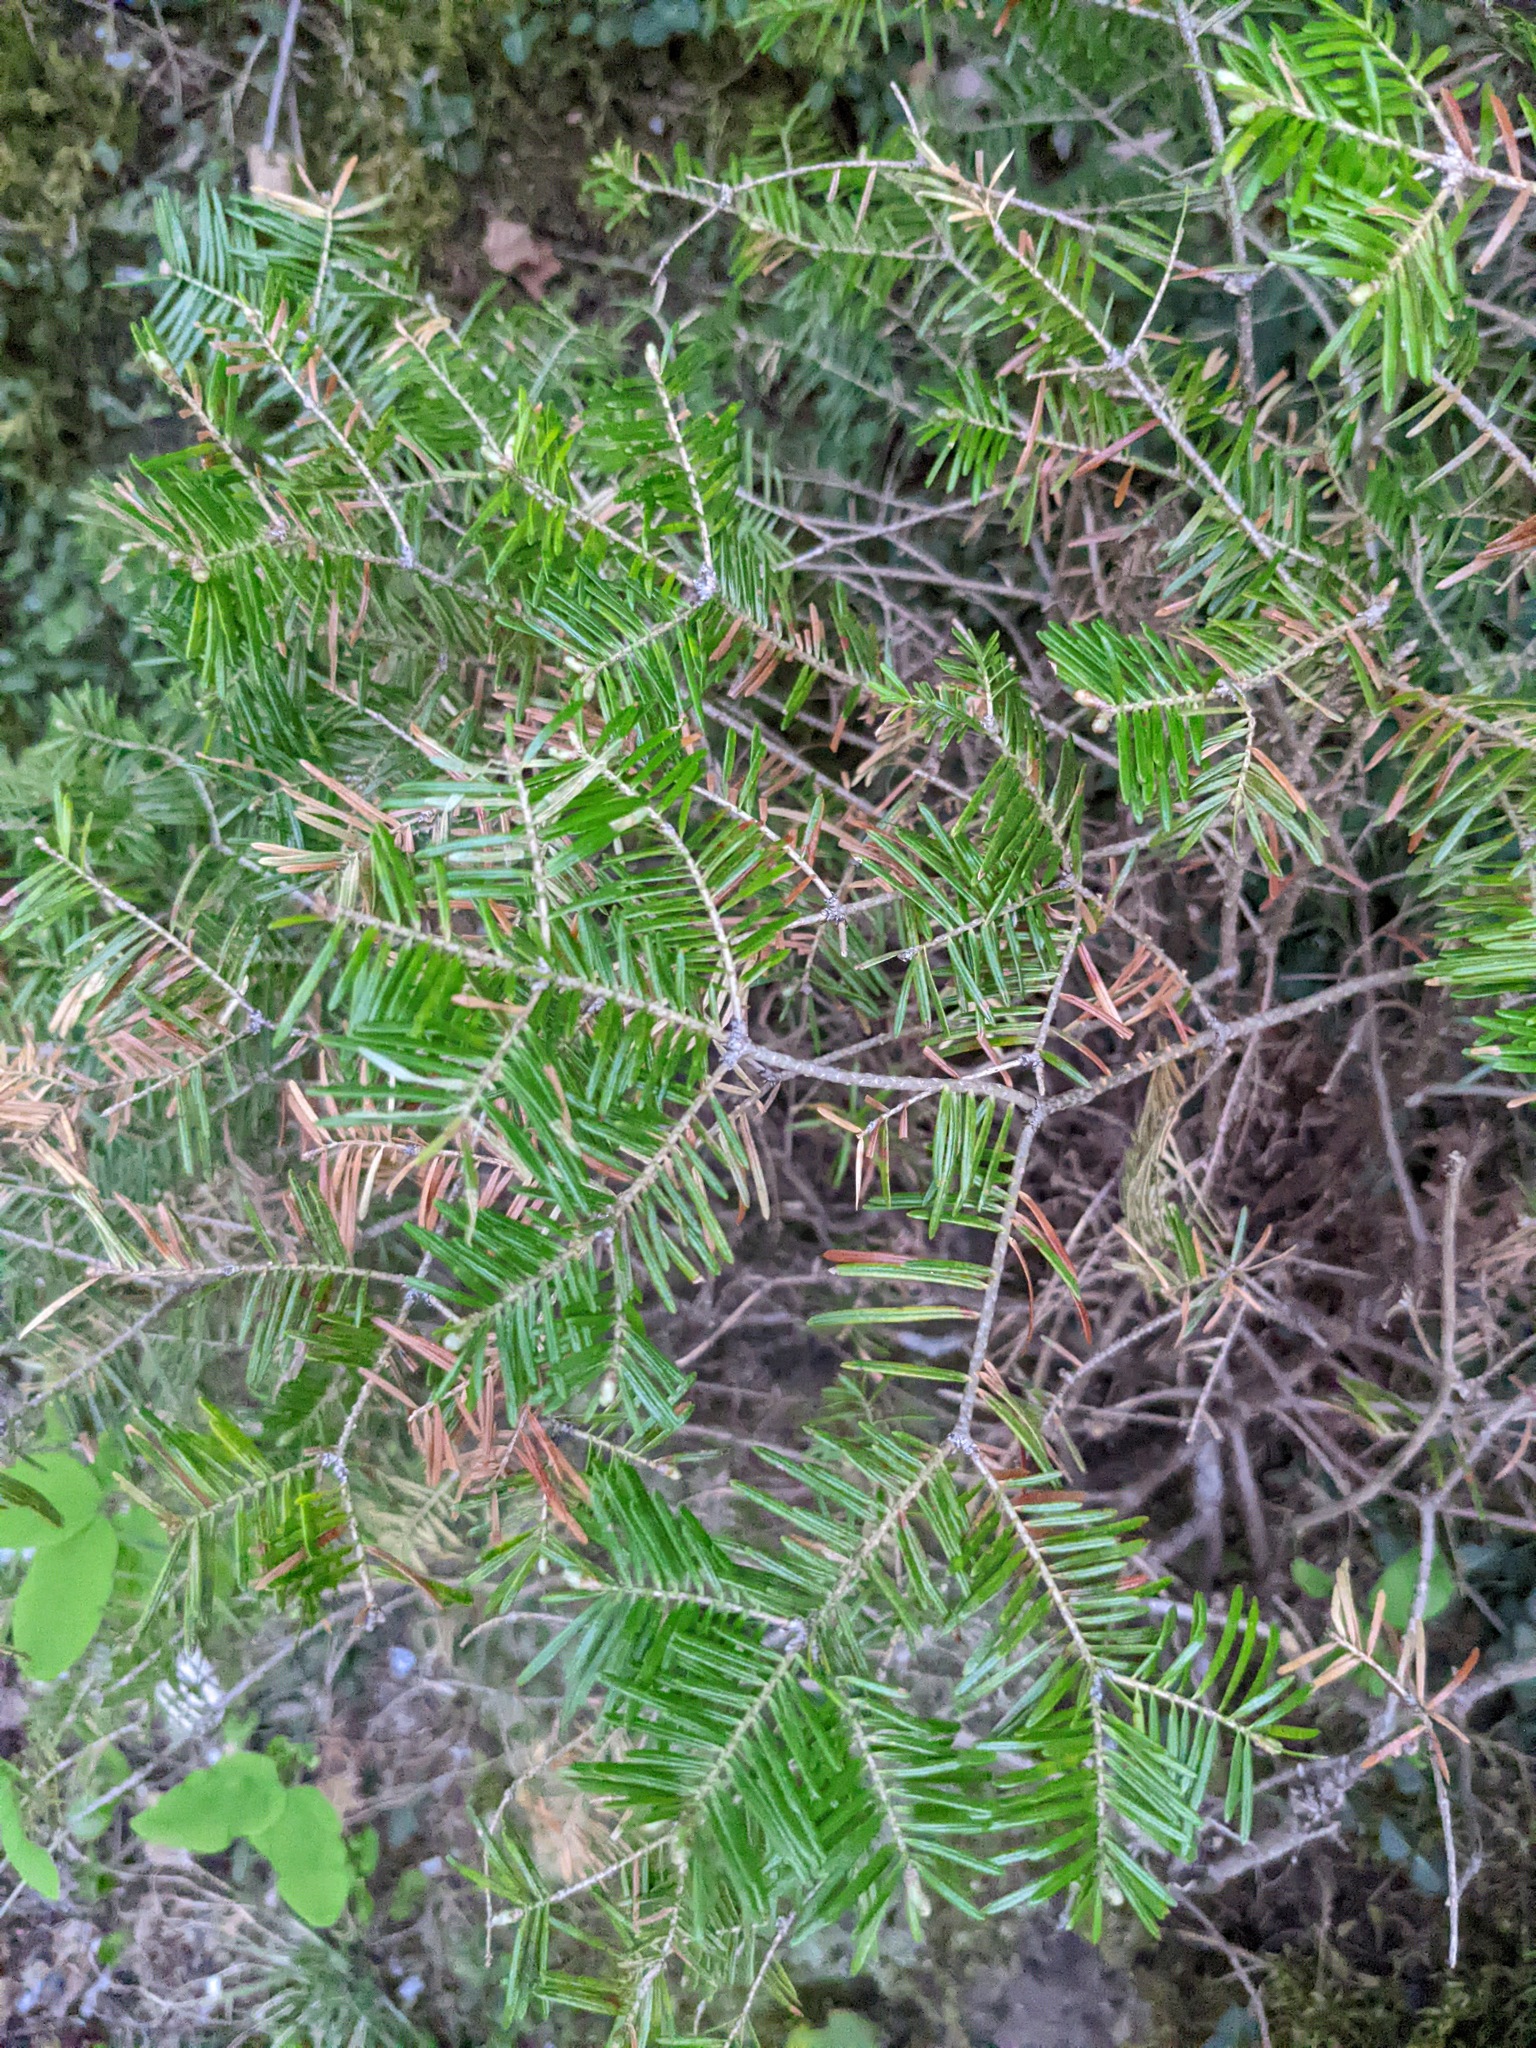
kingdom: Plantae
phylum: Tracheophyta
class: Pinopsida
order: Pinales
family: Pinaceae
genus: Abies
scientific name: Abies balsamea
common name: Balsam fir
